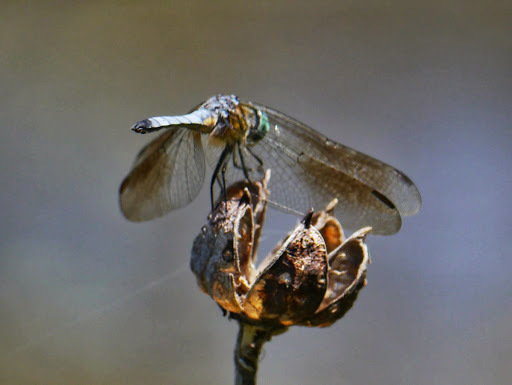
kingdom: Animalia
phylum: Arthropoda
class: Insecta
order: Odonata
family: Libellulidae
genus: Pachydiplax
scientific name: Pachydiplax longipennis
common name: Blue dasher
